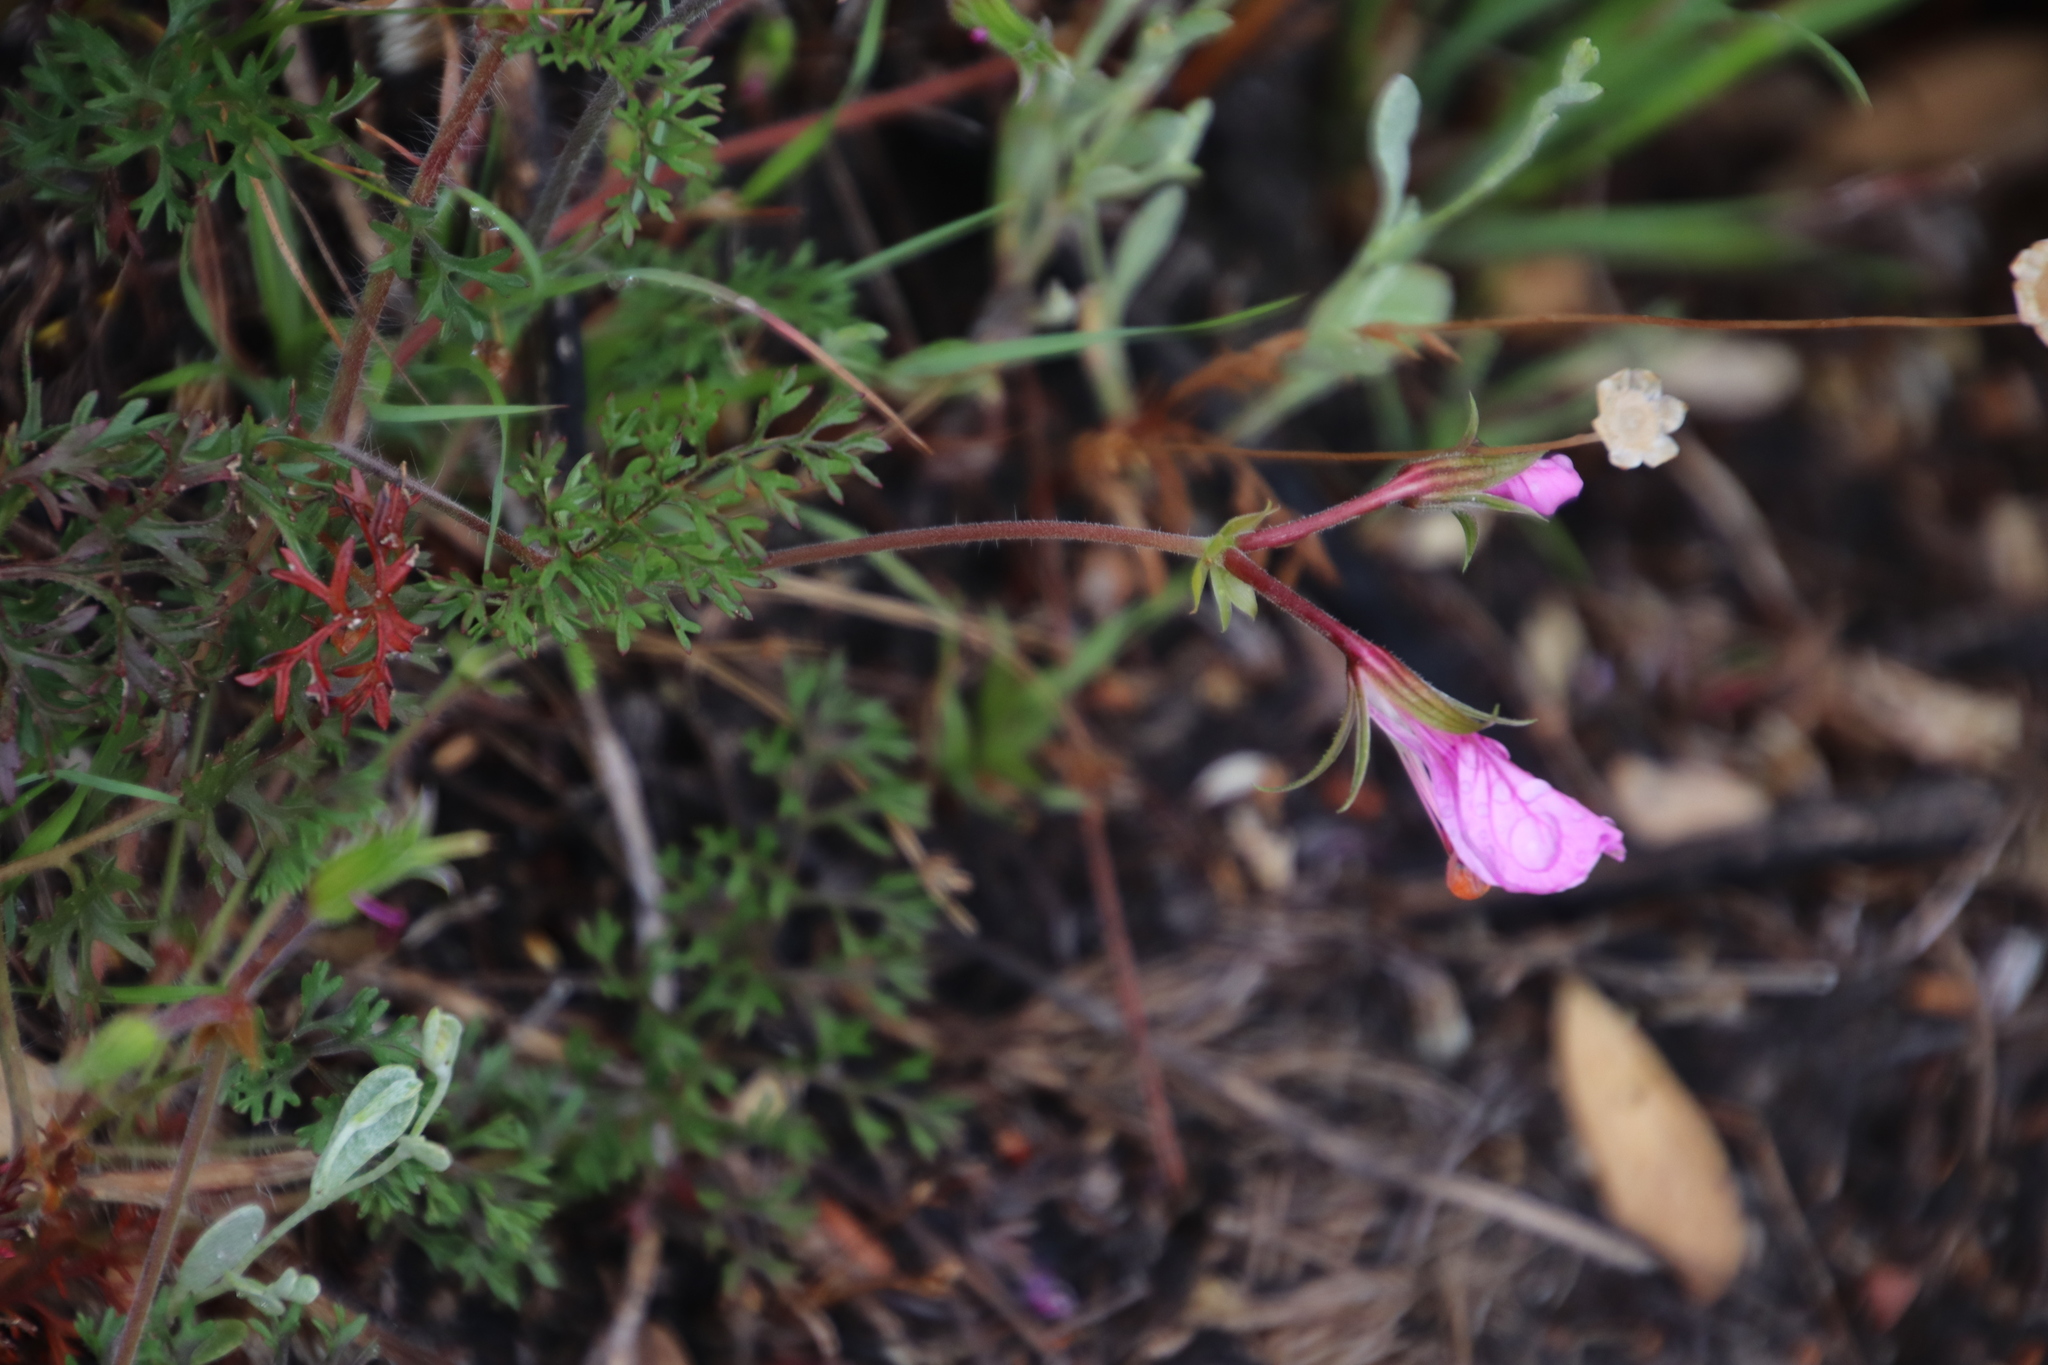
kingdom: Plantae
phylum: Tracheophyta
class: Magnoliopsida
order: Geraniales
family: Geraniaceae
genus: Pelargonium
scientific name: Pelargonium myrrhifolium
